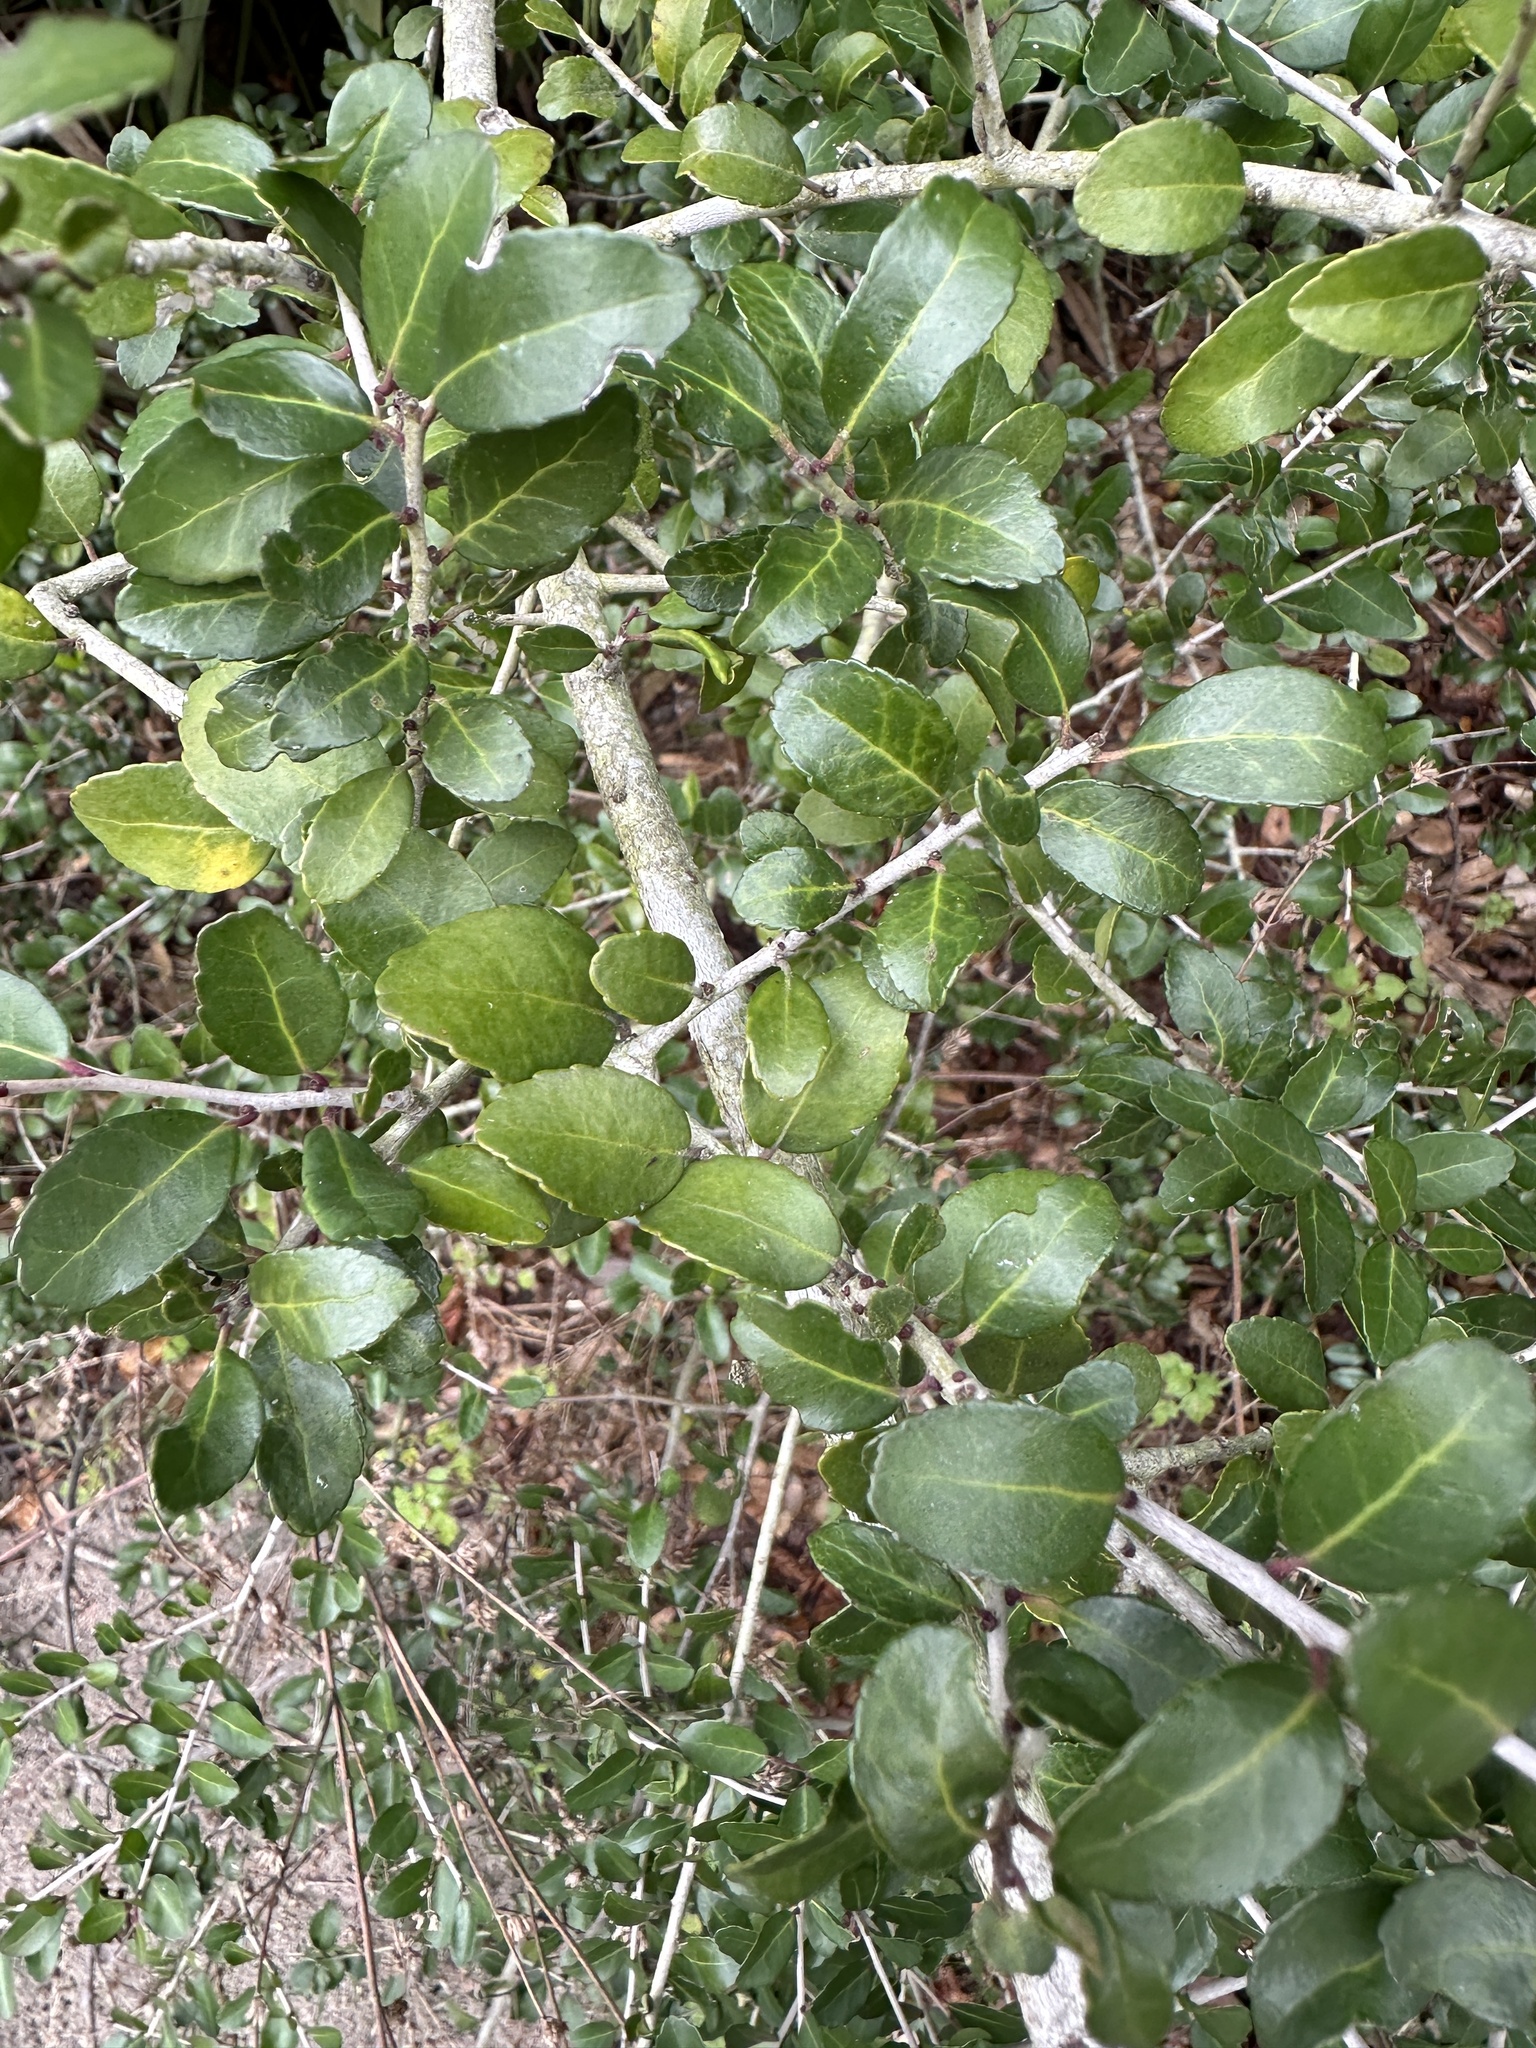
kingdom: Plantae
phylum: Tracheophyta
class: Magnoliopsida
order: Aquifoliales
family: Aquifoliaceae
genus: Ilex
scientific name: Ilex vomitoria
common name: Yaupon holly
